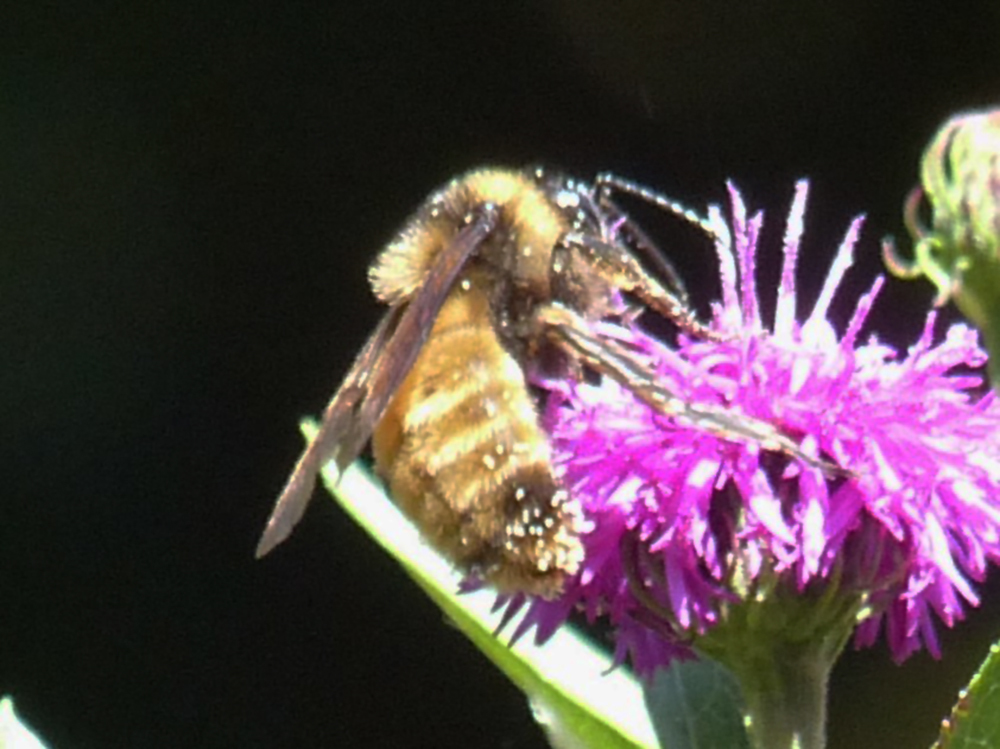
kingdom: Animalia
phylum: Arthropoda
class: Insecta
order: Hymenoptera
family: Apidae
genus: Bombus
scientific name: Bombus pensylvanicus
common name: Bumble bee
